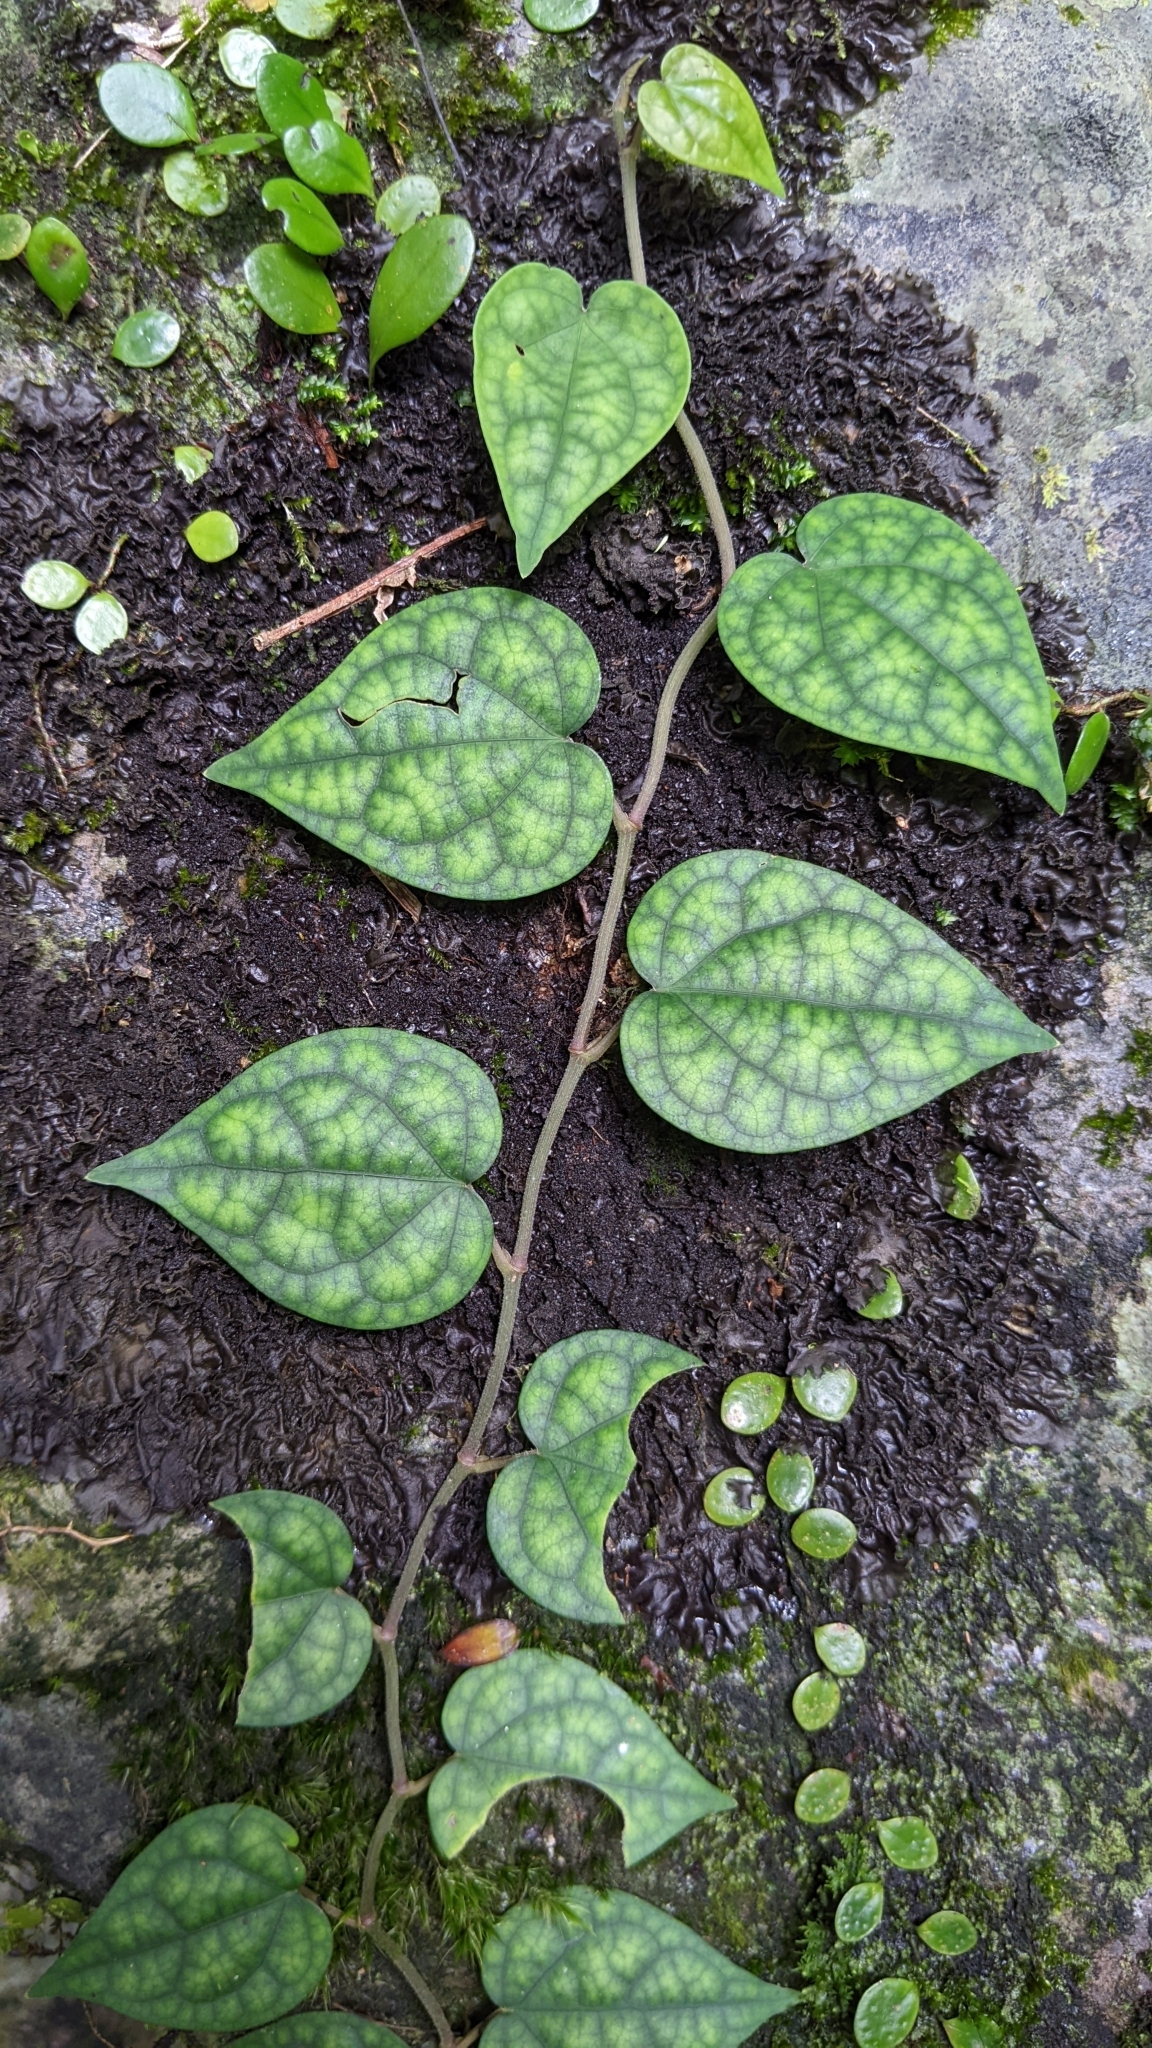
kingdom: Plantae
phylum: Tracheophyta
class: Magnoliopsida
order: Piperales
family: Piperaceae
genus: Piper
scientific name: Piper kadsura
